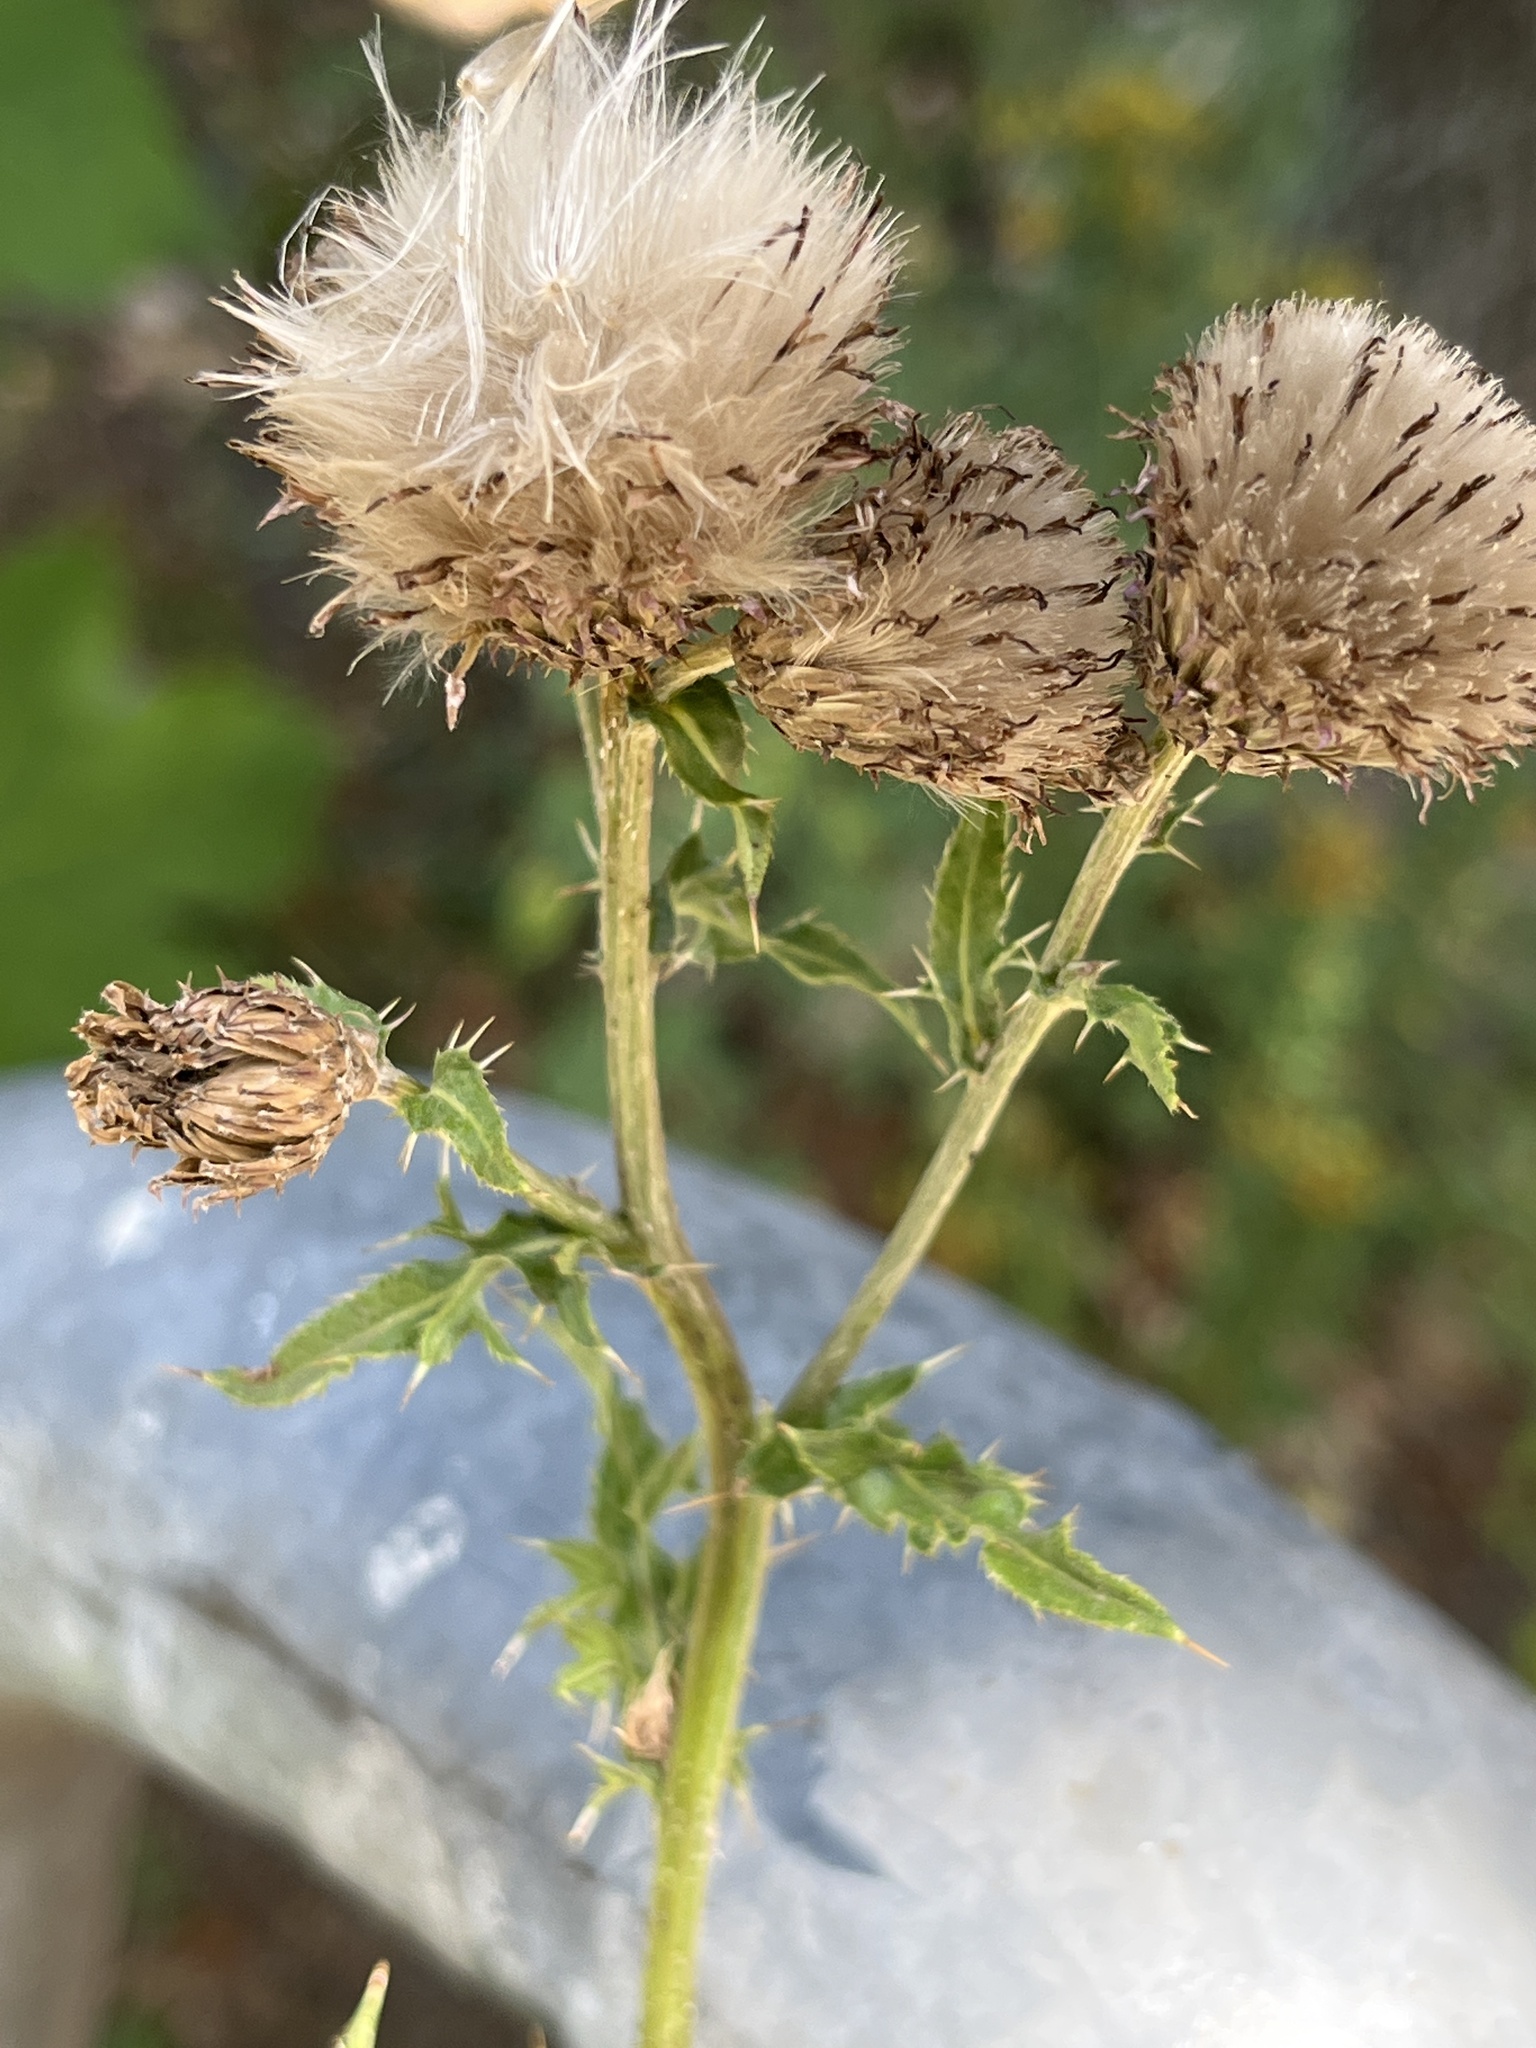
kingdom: Plantae
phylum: Tracheophyta
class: Magnoliopsida
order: Asterales
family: Asteraceae
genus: Cirsium
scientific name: Cirsium arvense
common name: Creeping thistle
